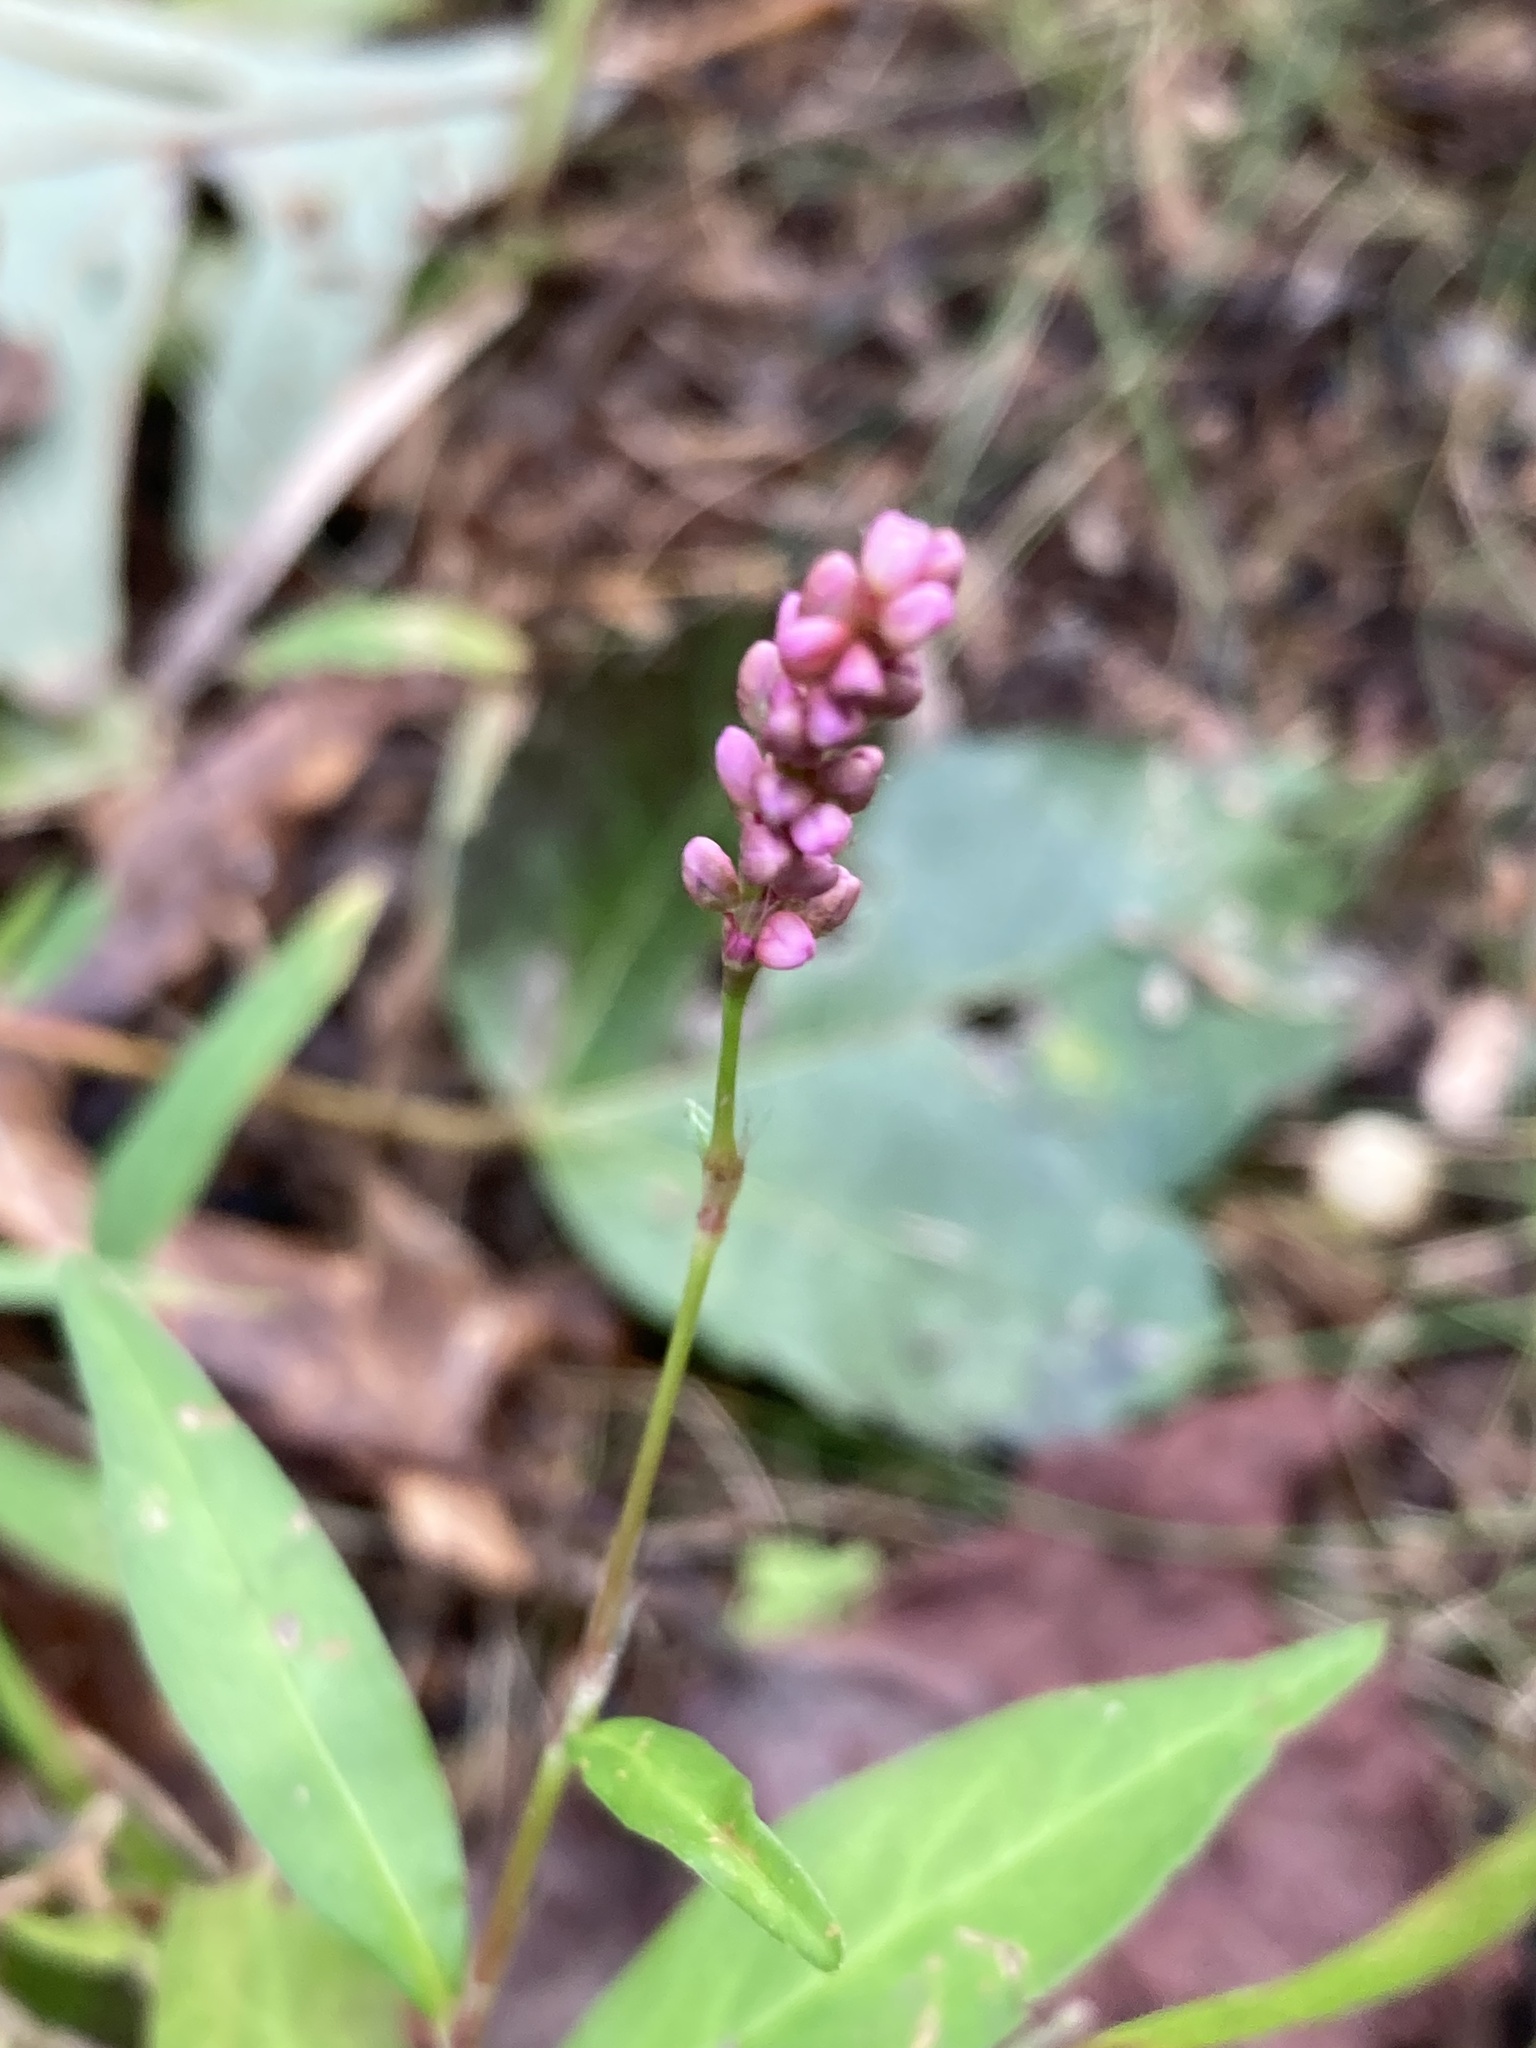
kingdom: Plantae
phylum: Tracheophyta
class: Magnoliopsida
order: Caryophyllales
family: Polygonaceae
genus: Persicaria
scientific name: Persicaria longiseta
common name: Bristly lady's-thumb
